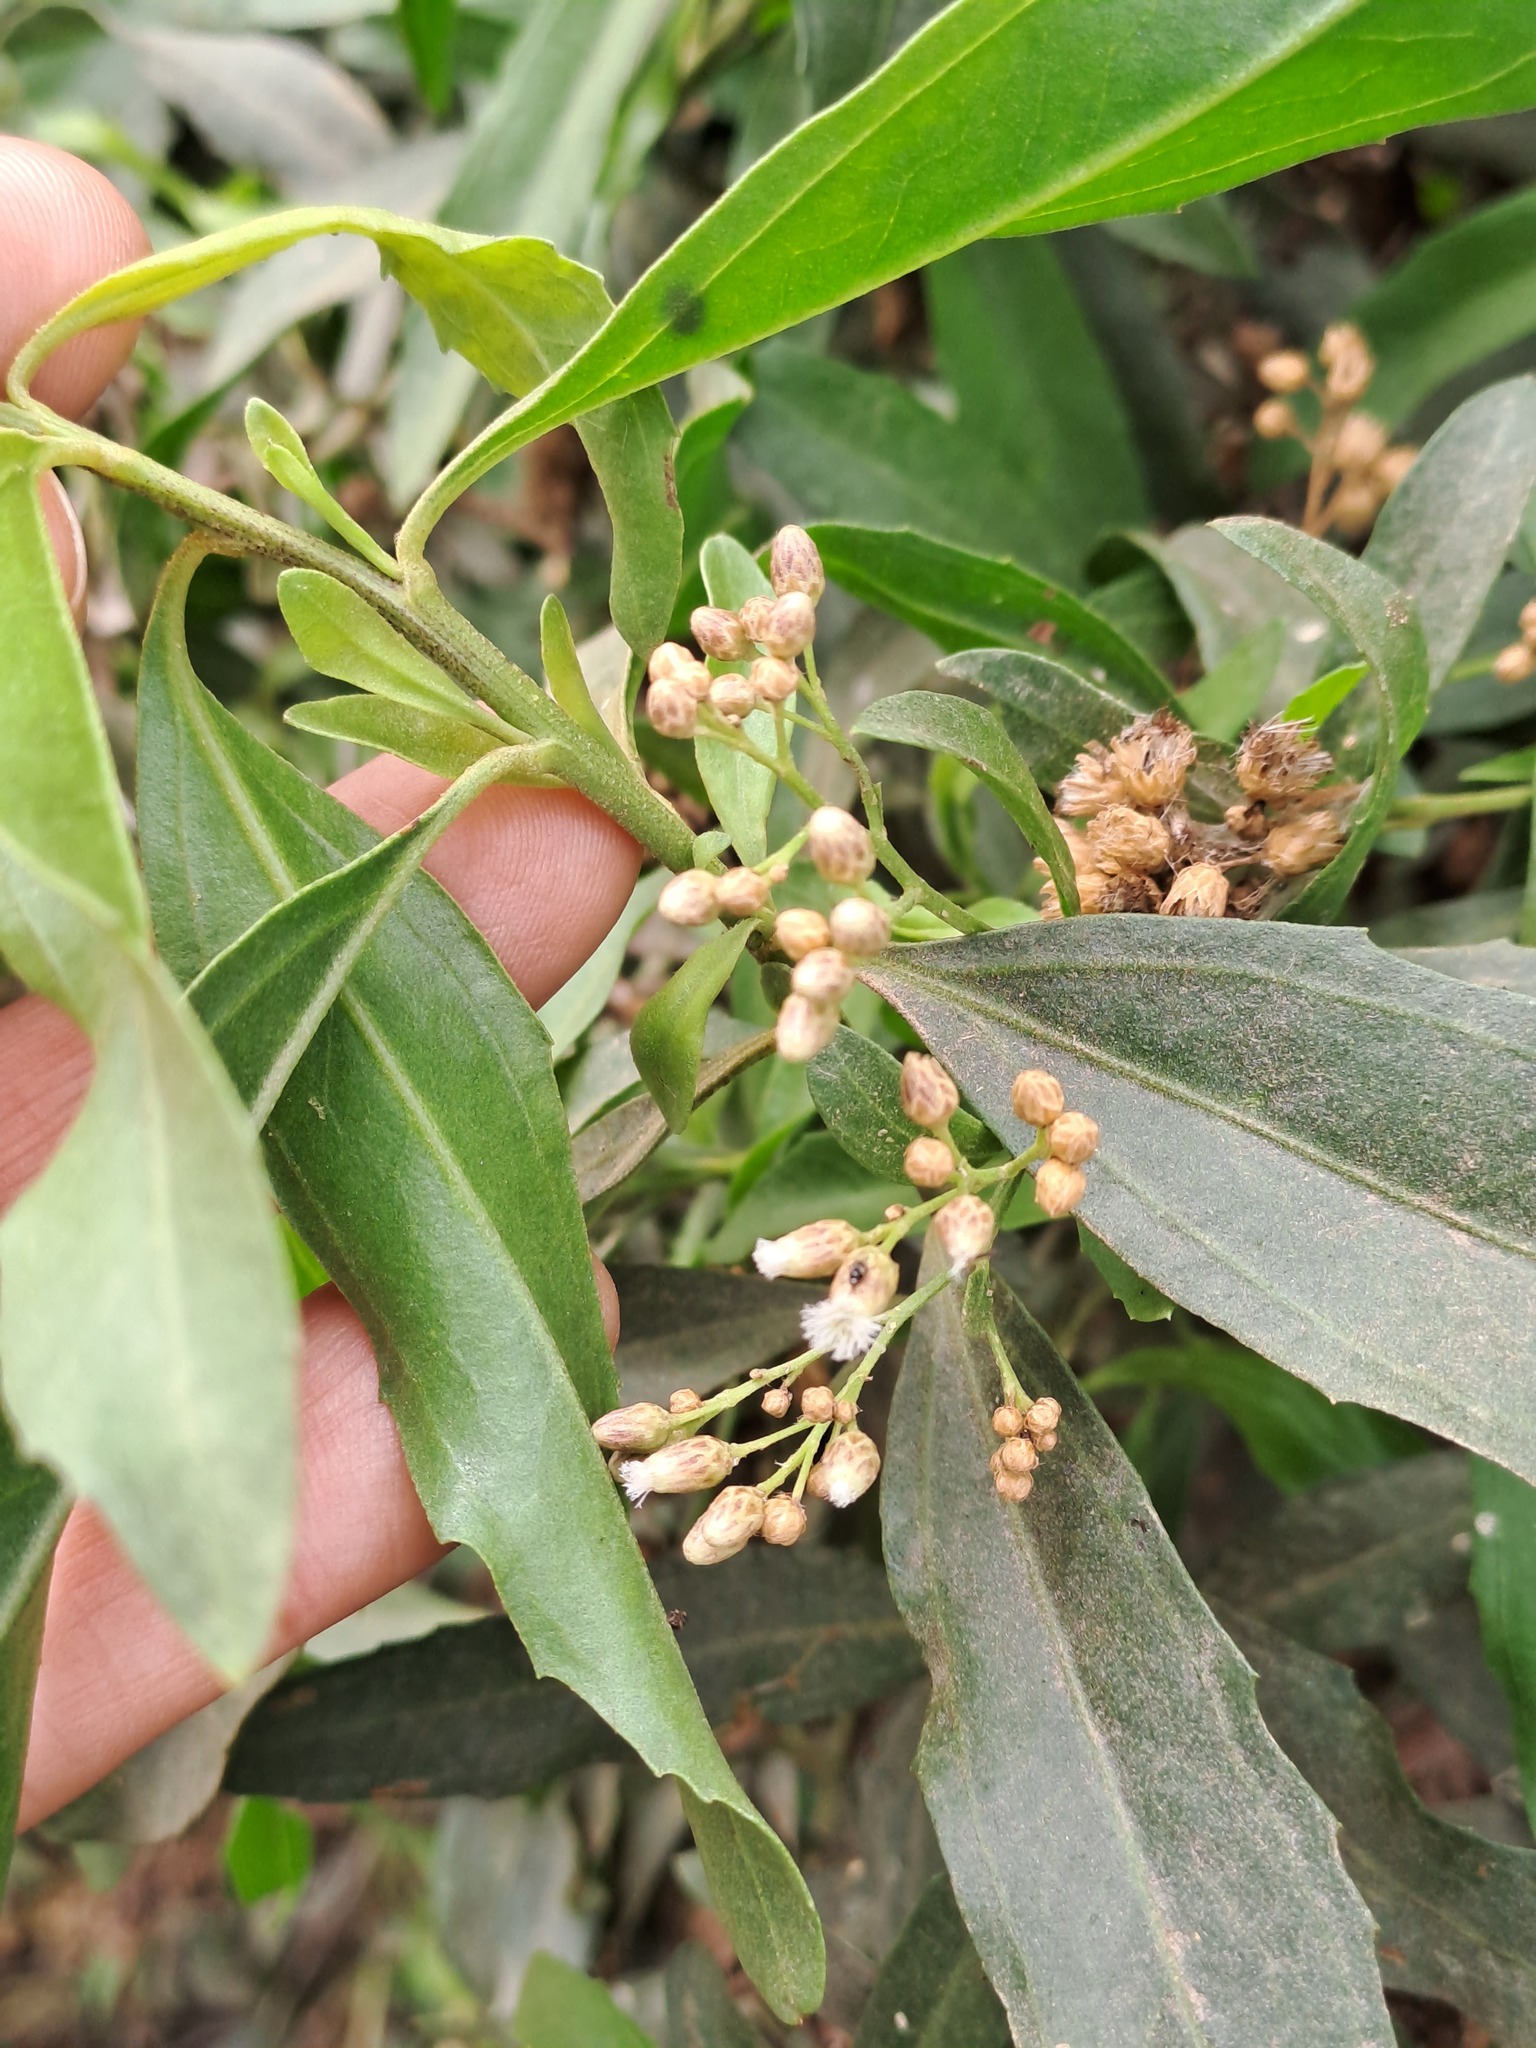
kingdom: Plantae
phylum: Tracheophyta
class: Magnoliopsida
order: Asterales
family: Asteraceae
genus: Baccharis
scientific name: Baccharis salicifolia
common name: Sticky baccharis
